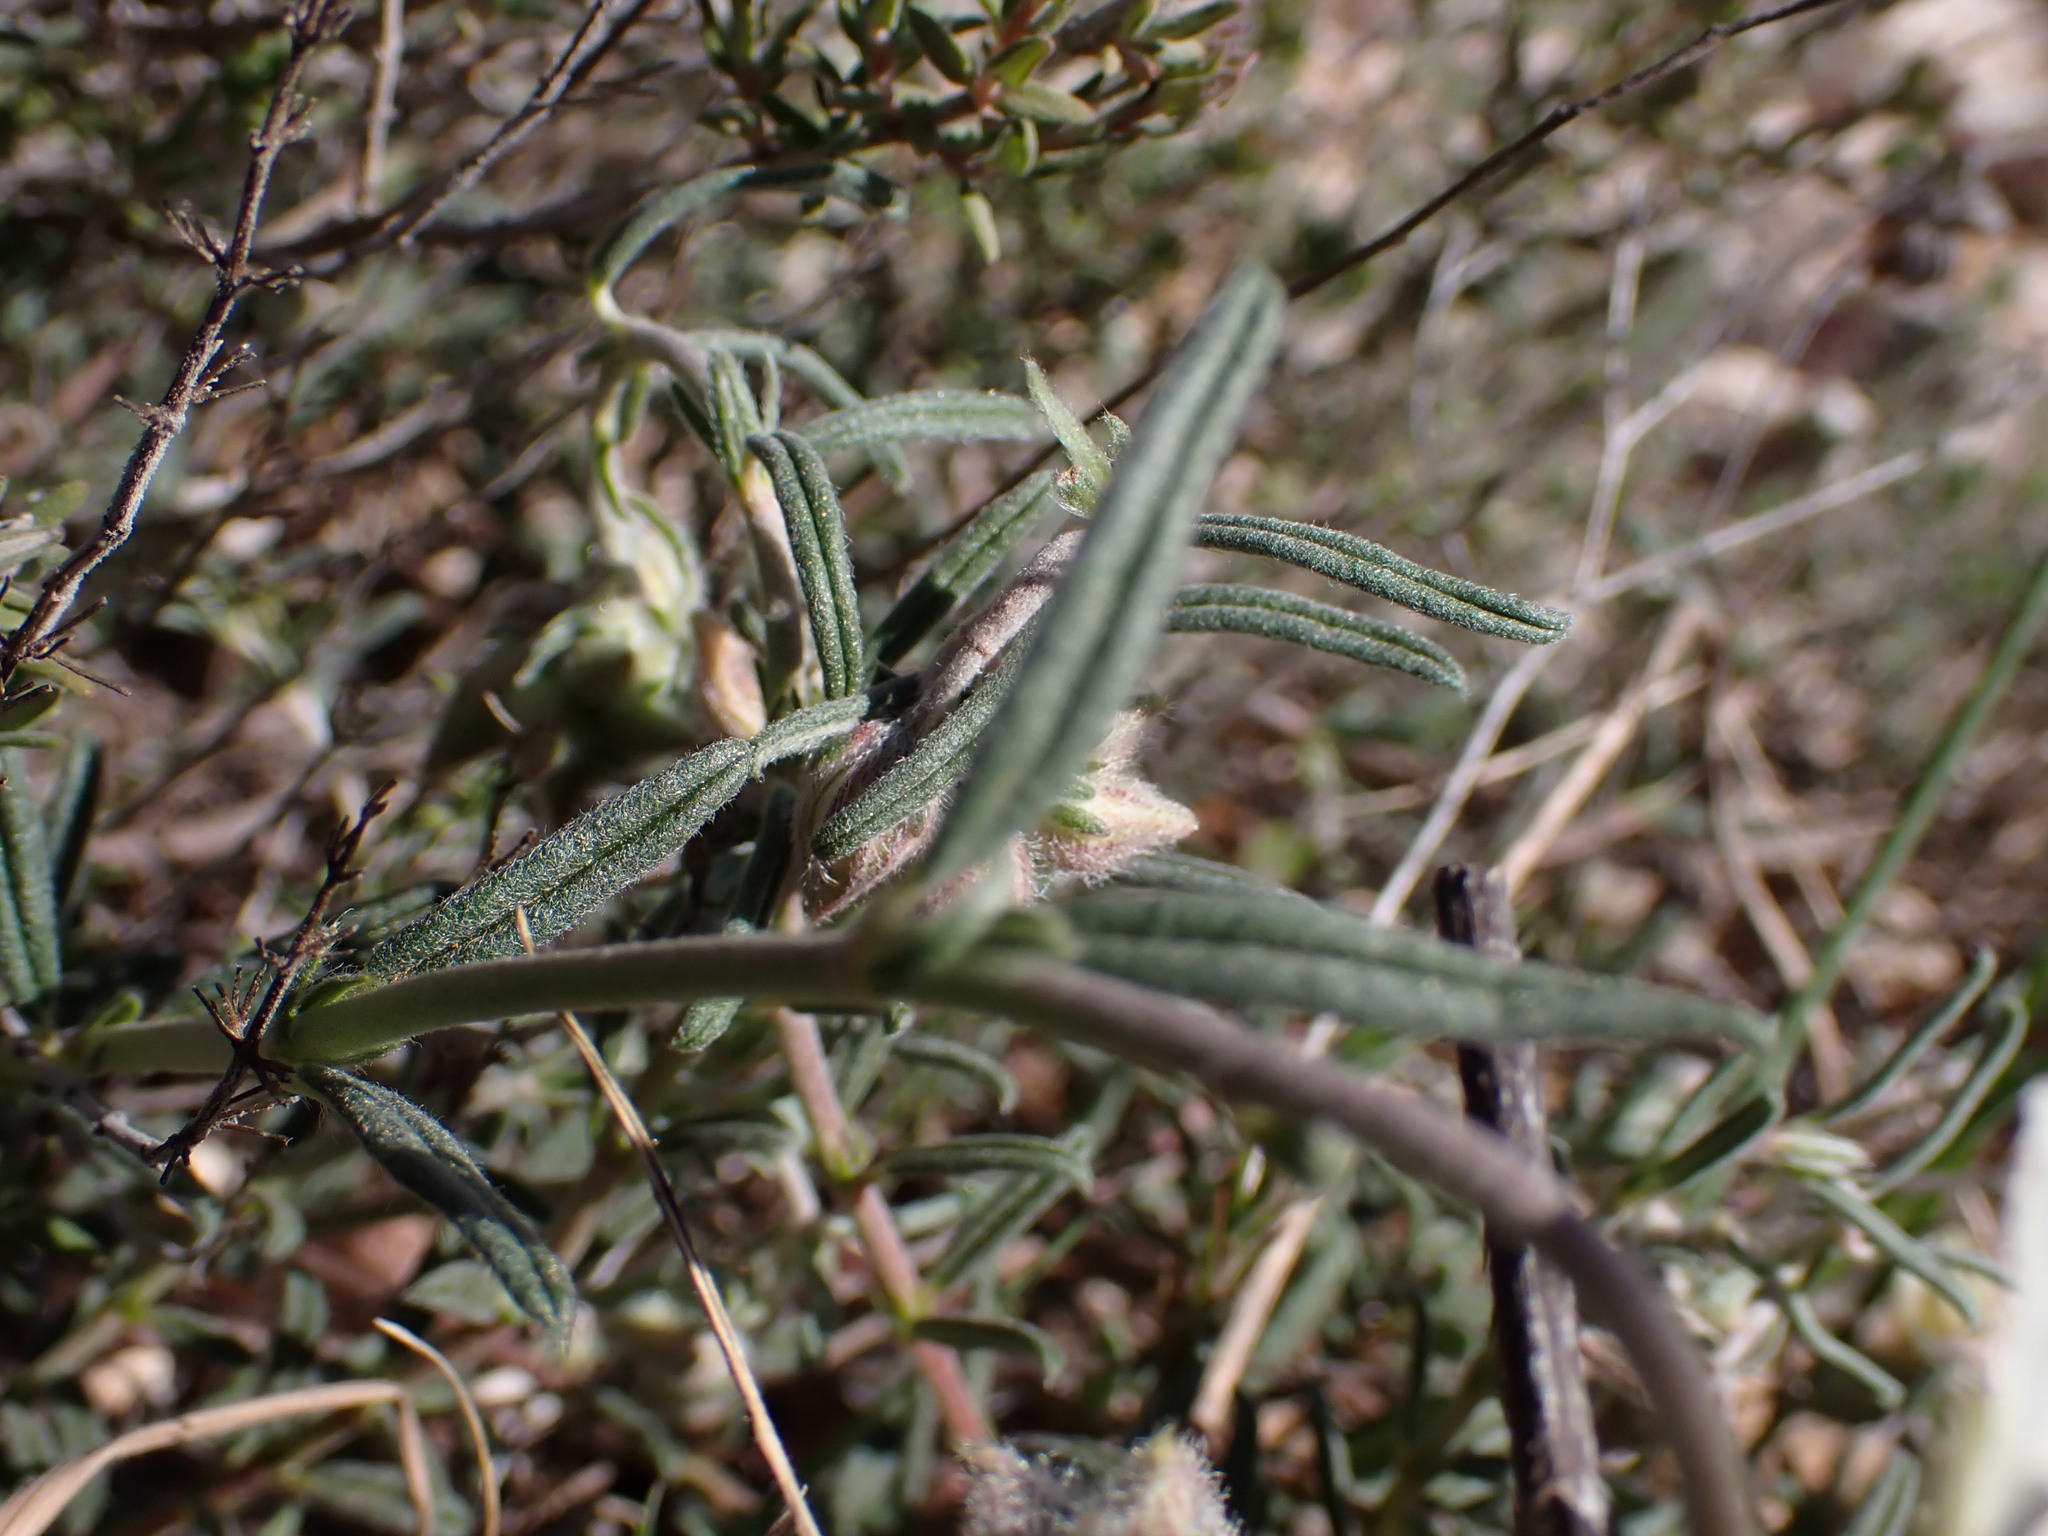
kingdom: Plantae
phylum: Tracheophyta
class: Magnoliopsida
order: Malvales
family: Cistaceae
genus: Helianthemum
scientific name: Helianthemum apenninum
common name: White rock-rose
